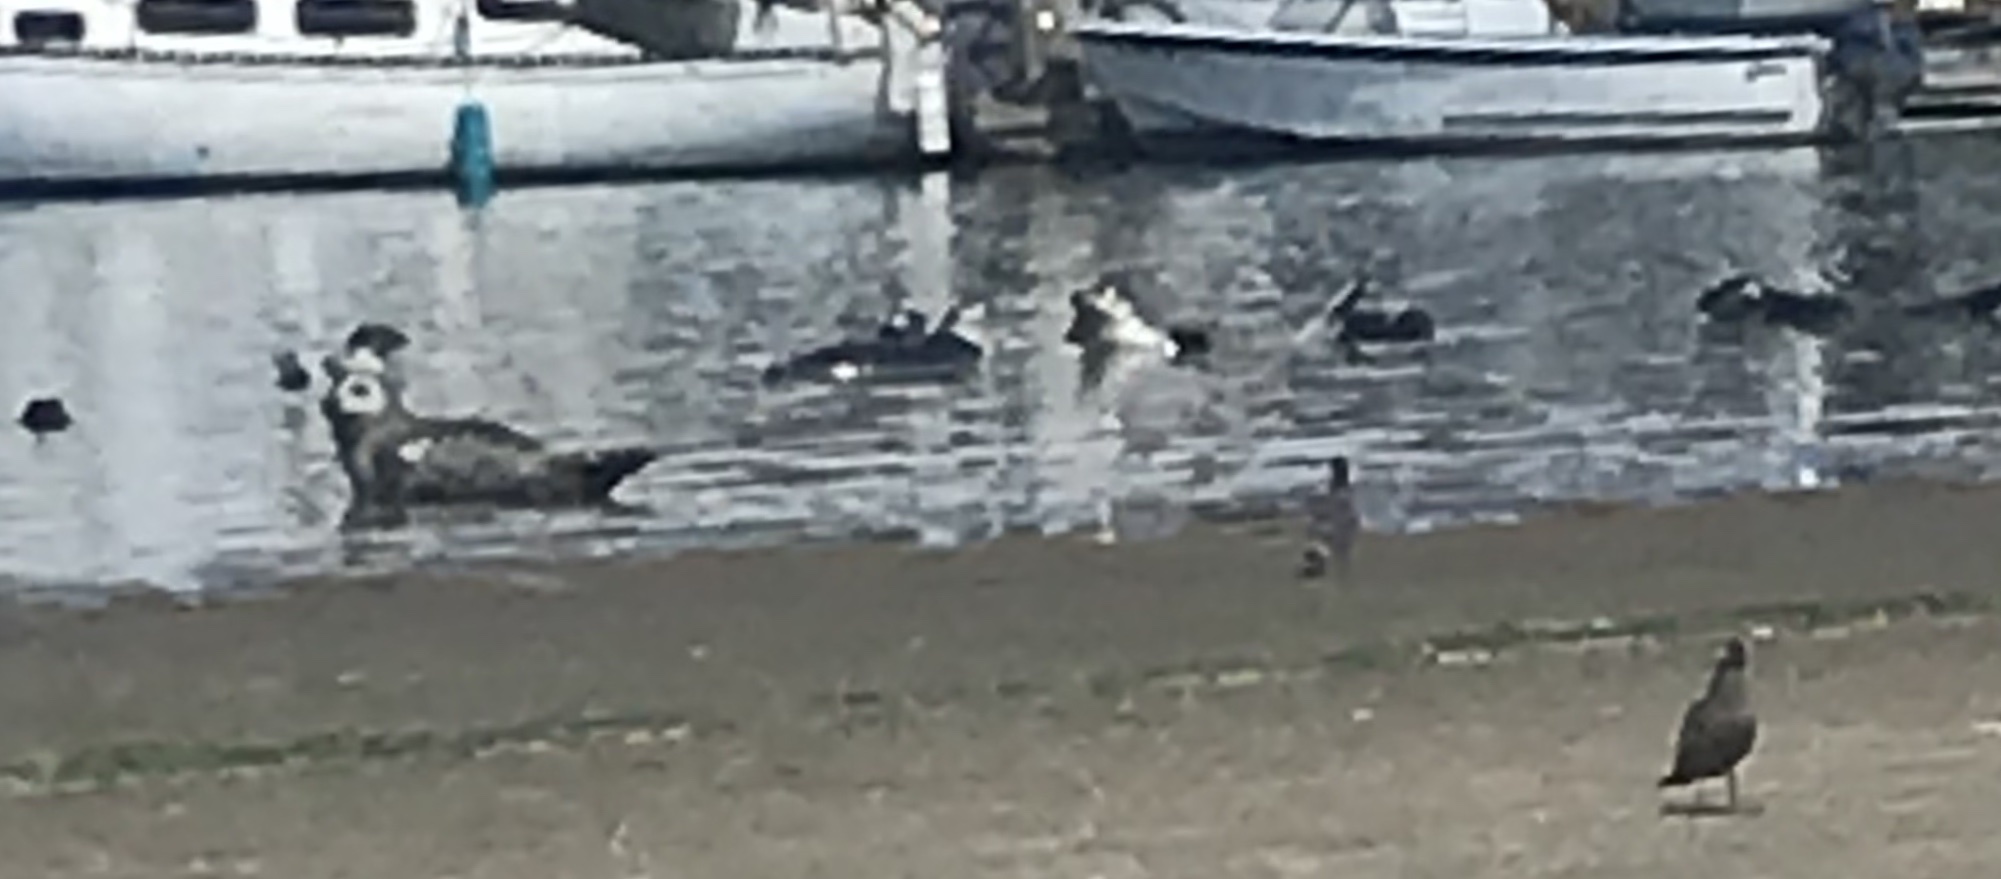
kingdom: Animalia
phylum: Chordata
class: Mammalia
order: Carnivora
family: Phocidae
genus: Phoca
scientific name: Phoca vitulina
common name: Harbor seal
